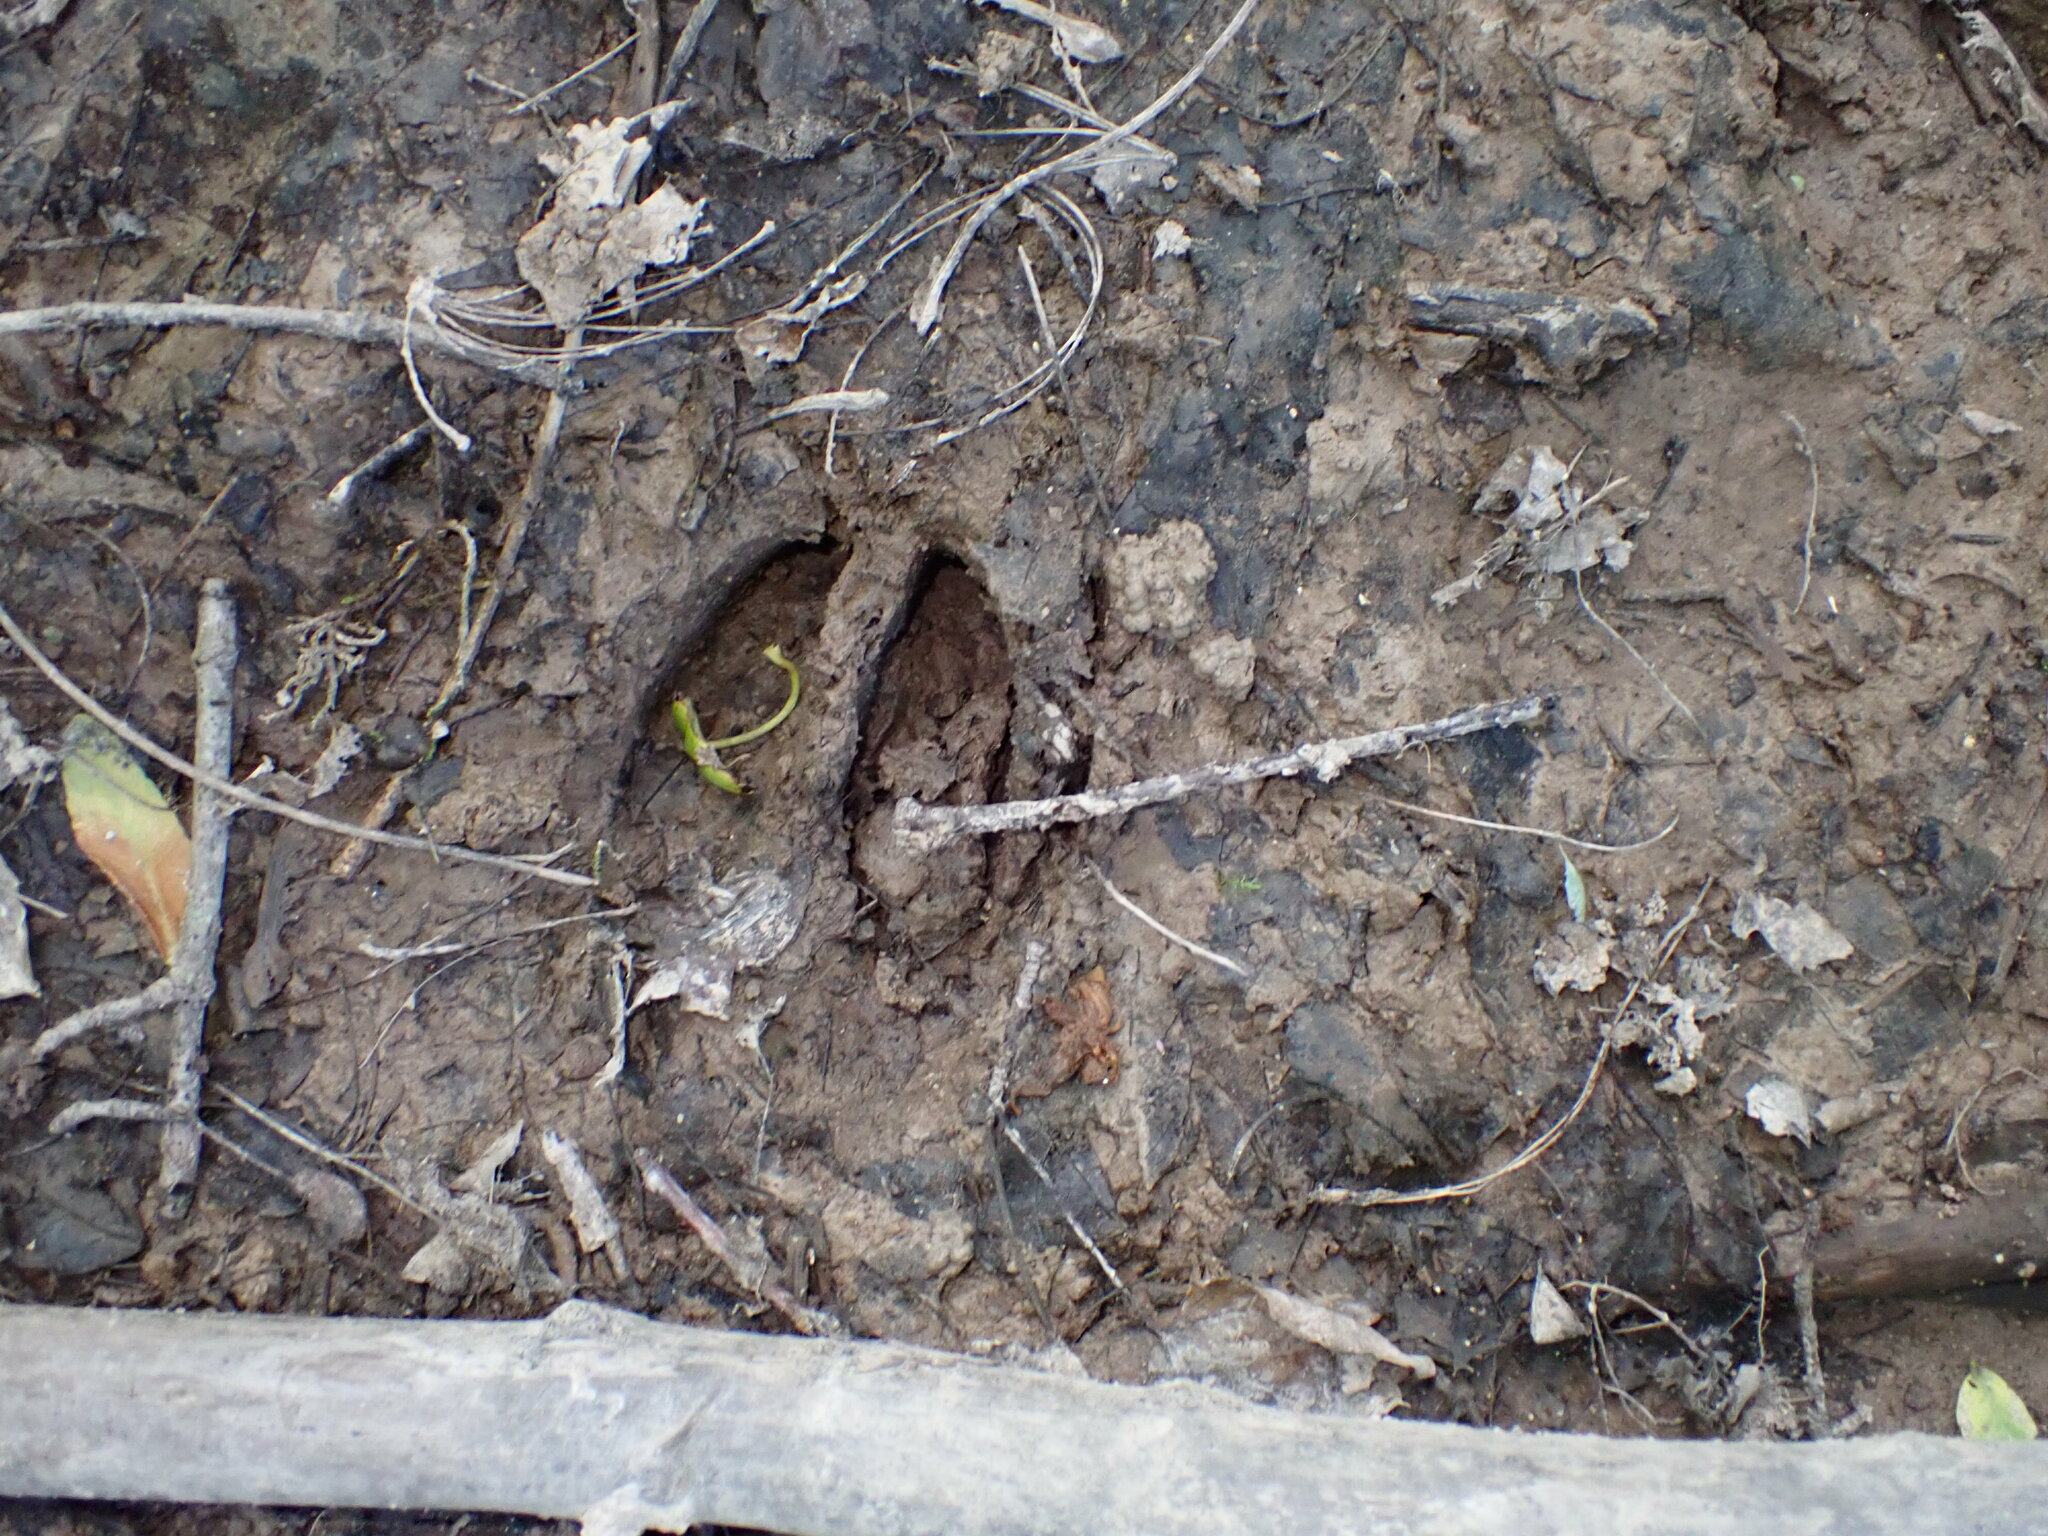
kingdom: Animalia
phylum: Chordata
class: Mammalia
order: Artiodactyla
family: Cervidae
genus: Odocoileus
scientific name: Odocoileus virginianus
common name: White-tailed deer
